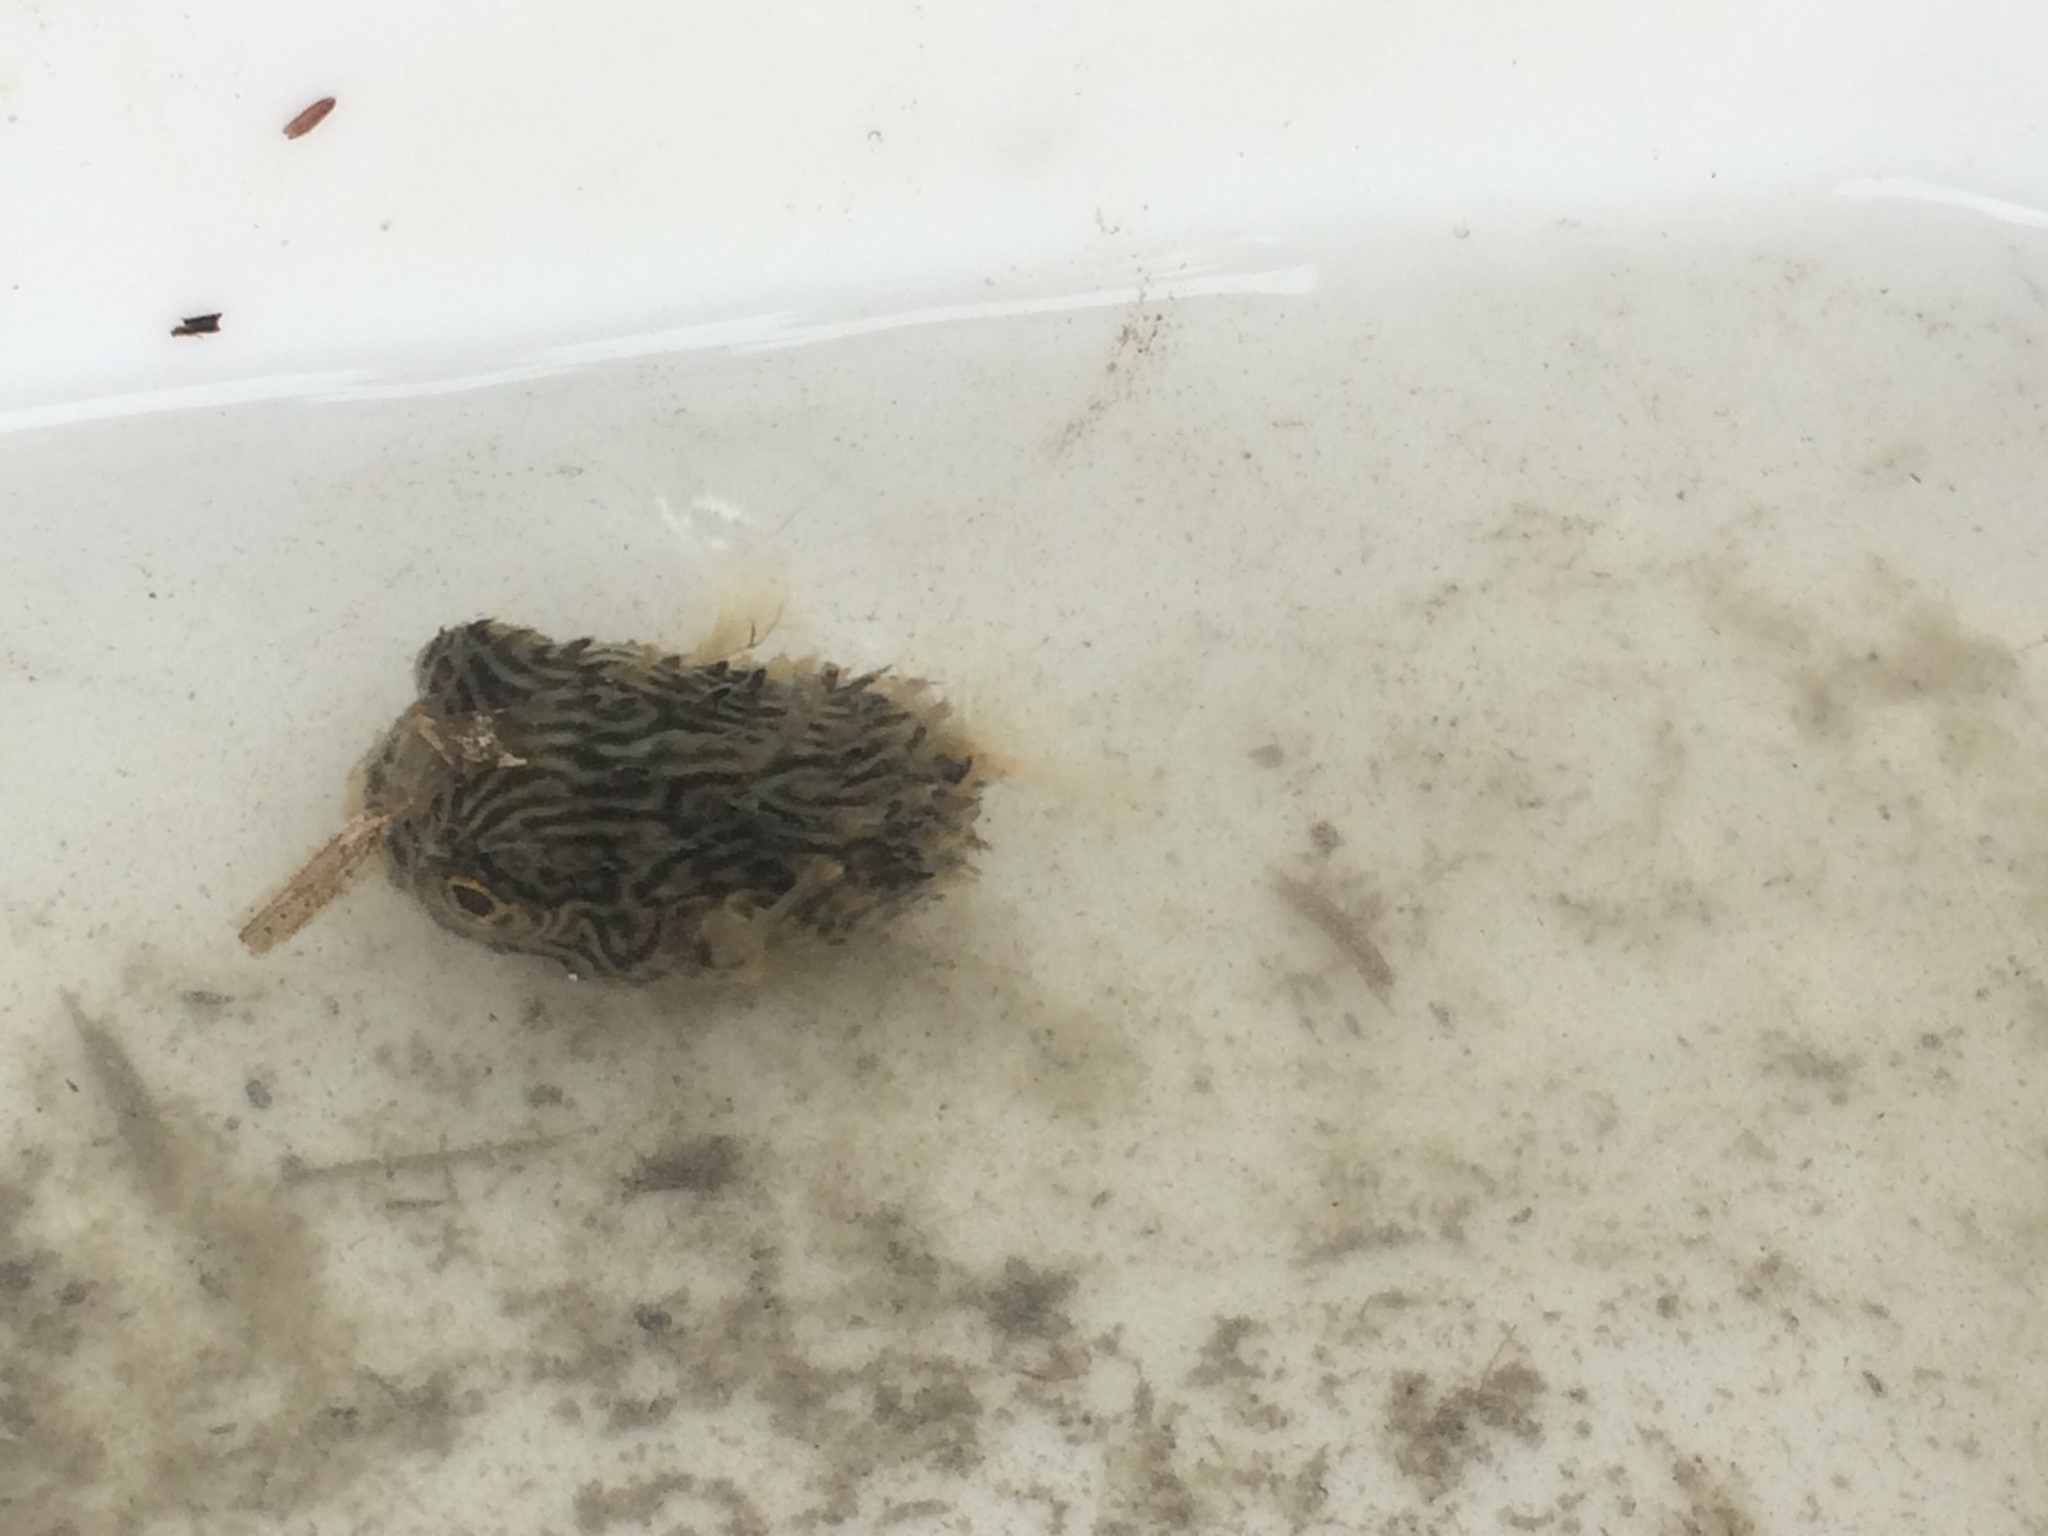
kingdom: Animalia
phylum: Chordata
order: Tetraodontiformes
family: Diodontidae
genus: Chilomycterus
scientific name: Chilomycterus schoepfii
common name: Striped burrfish
